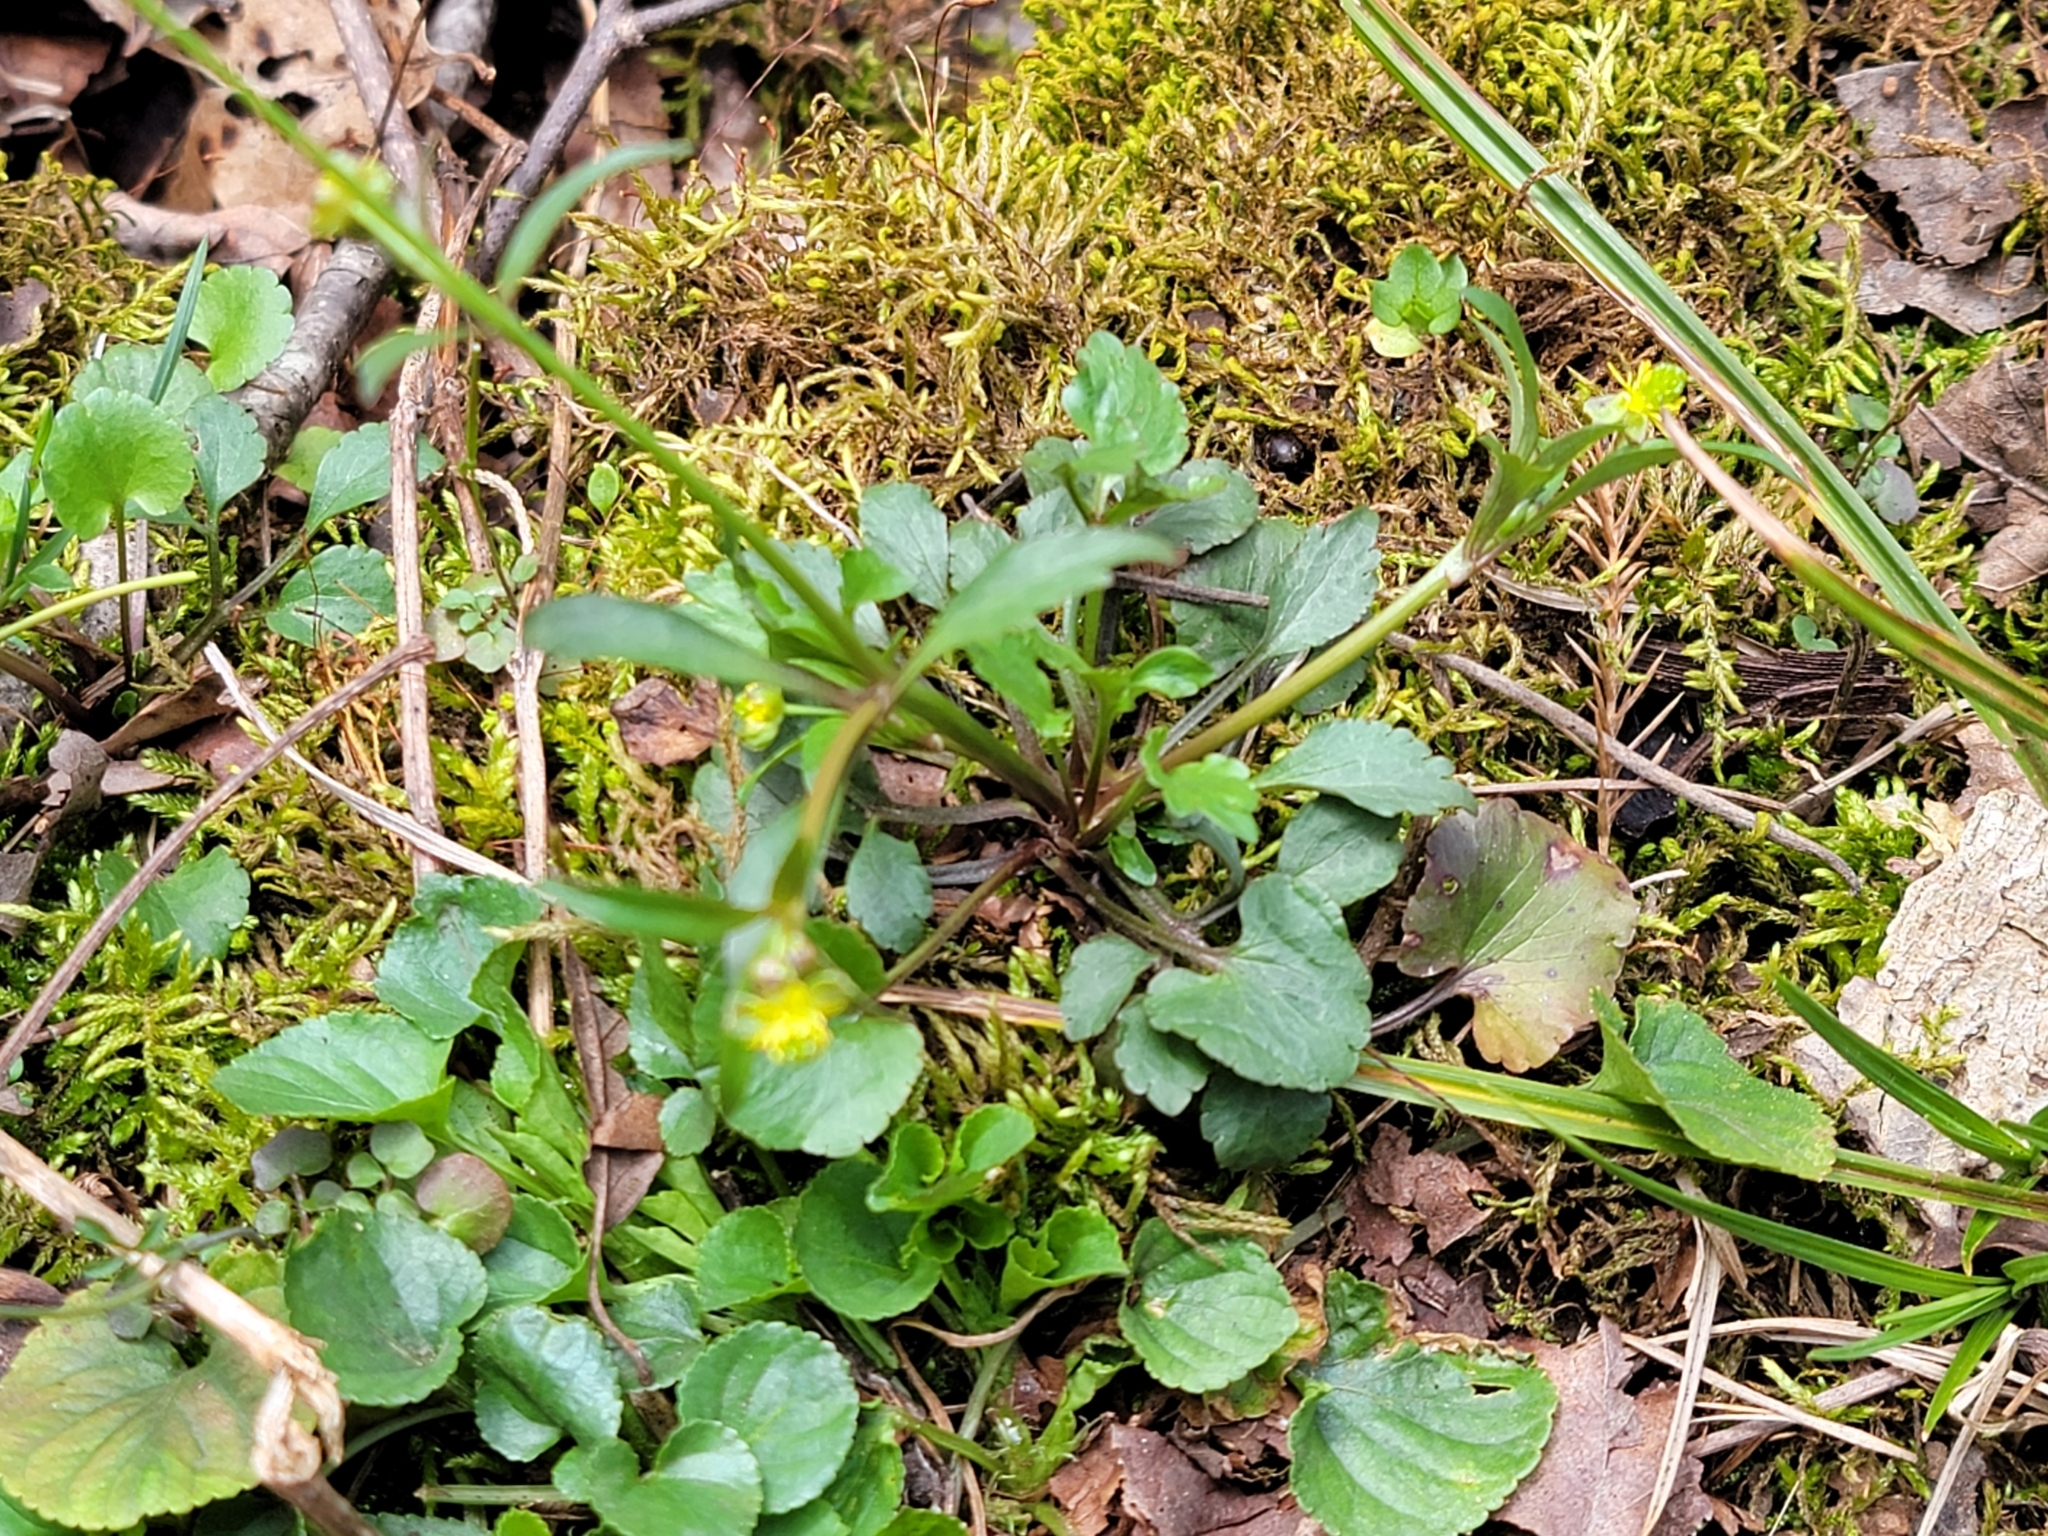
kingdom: Plantae
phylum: Tracheophyta
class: Magnoliopsida
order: Ranunculales
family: Ranunculaceae
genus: Ranunculus
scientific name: Ranunculus abortivus
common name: Early wood buttercup
